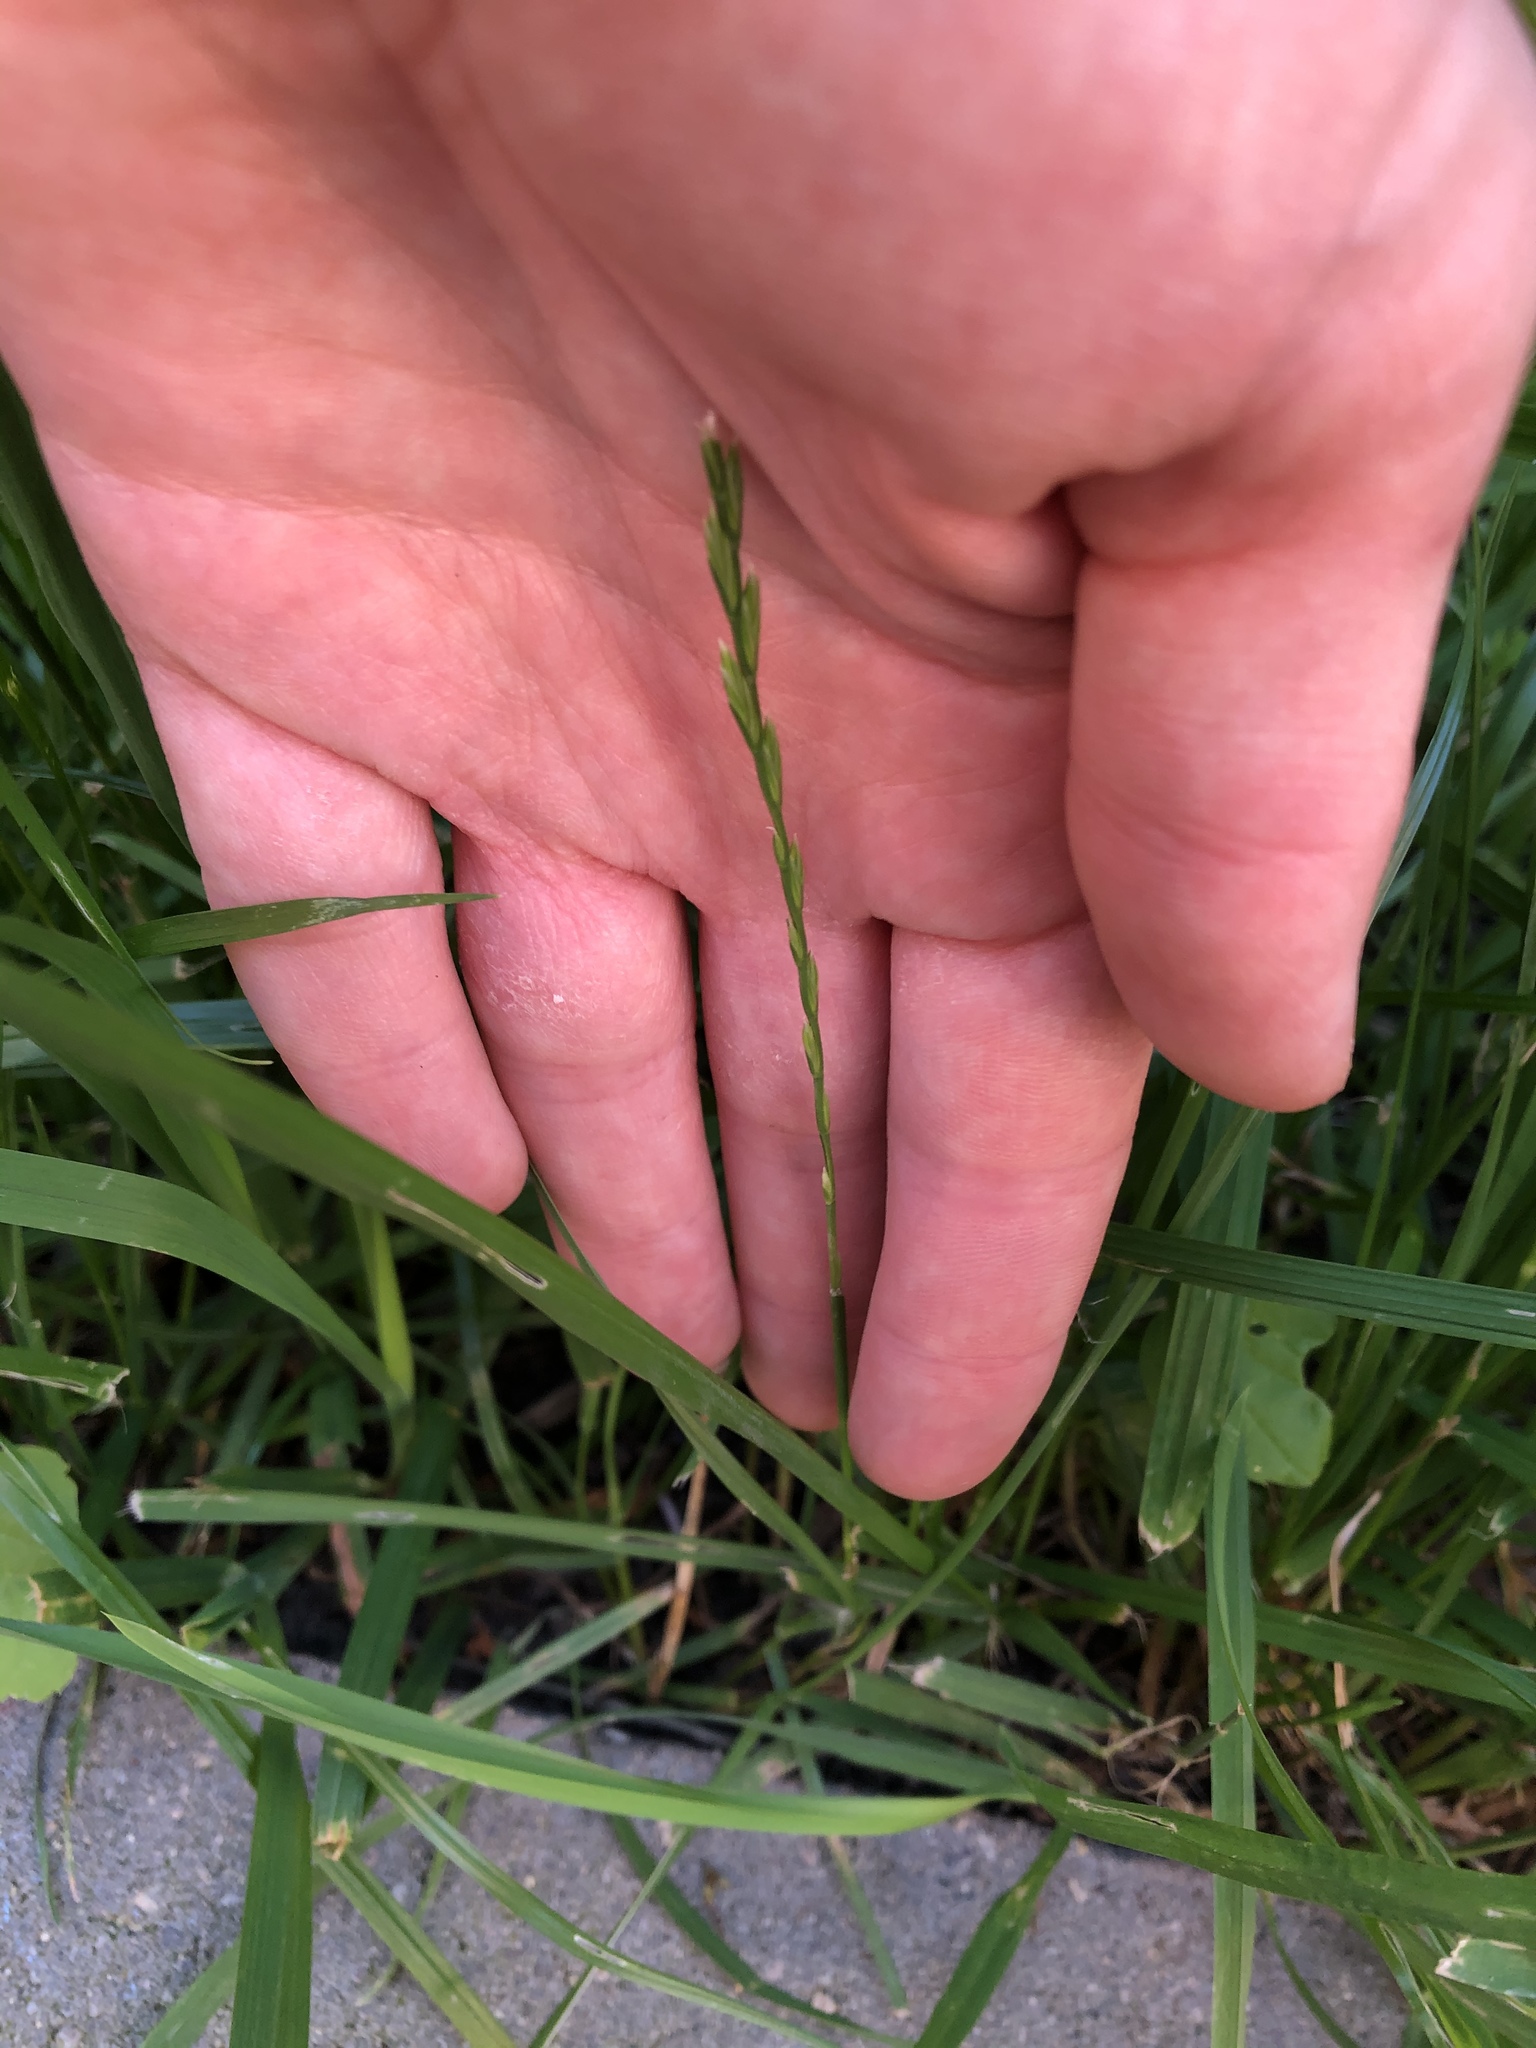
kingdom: Plantae
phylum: Tracheophyta
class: Liliopsida
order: Poales
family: Poaceae
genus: Lolium
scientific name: Lolium perenne
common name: Perennial ryegrass
